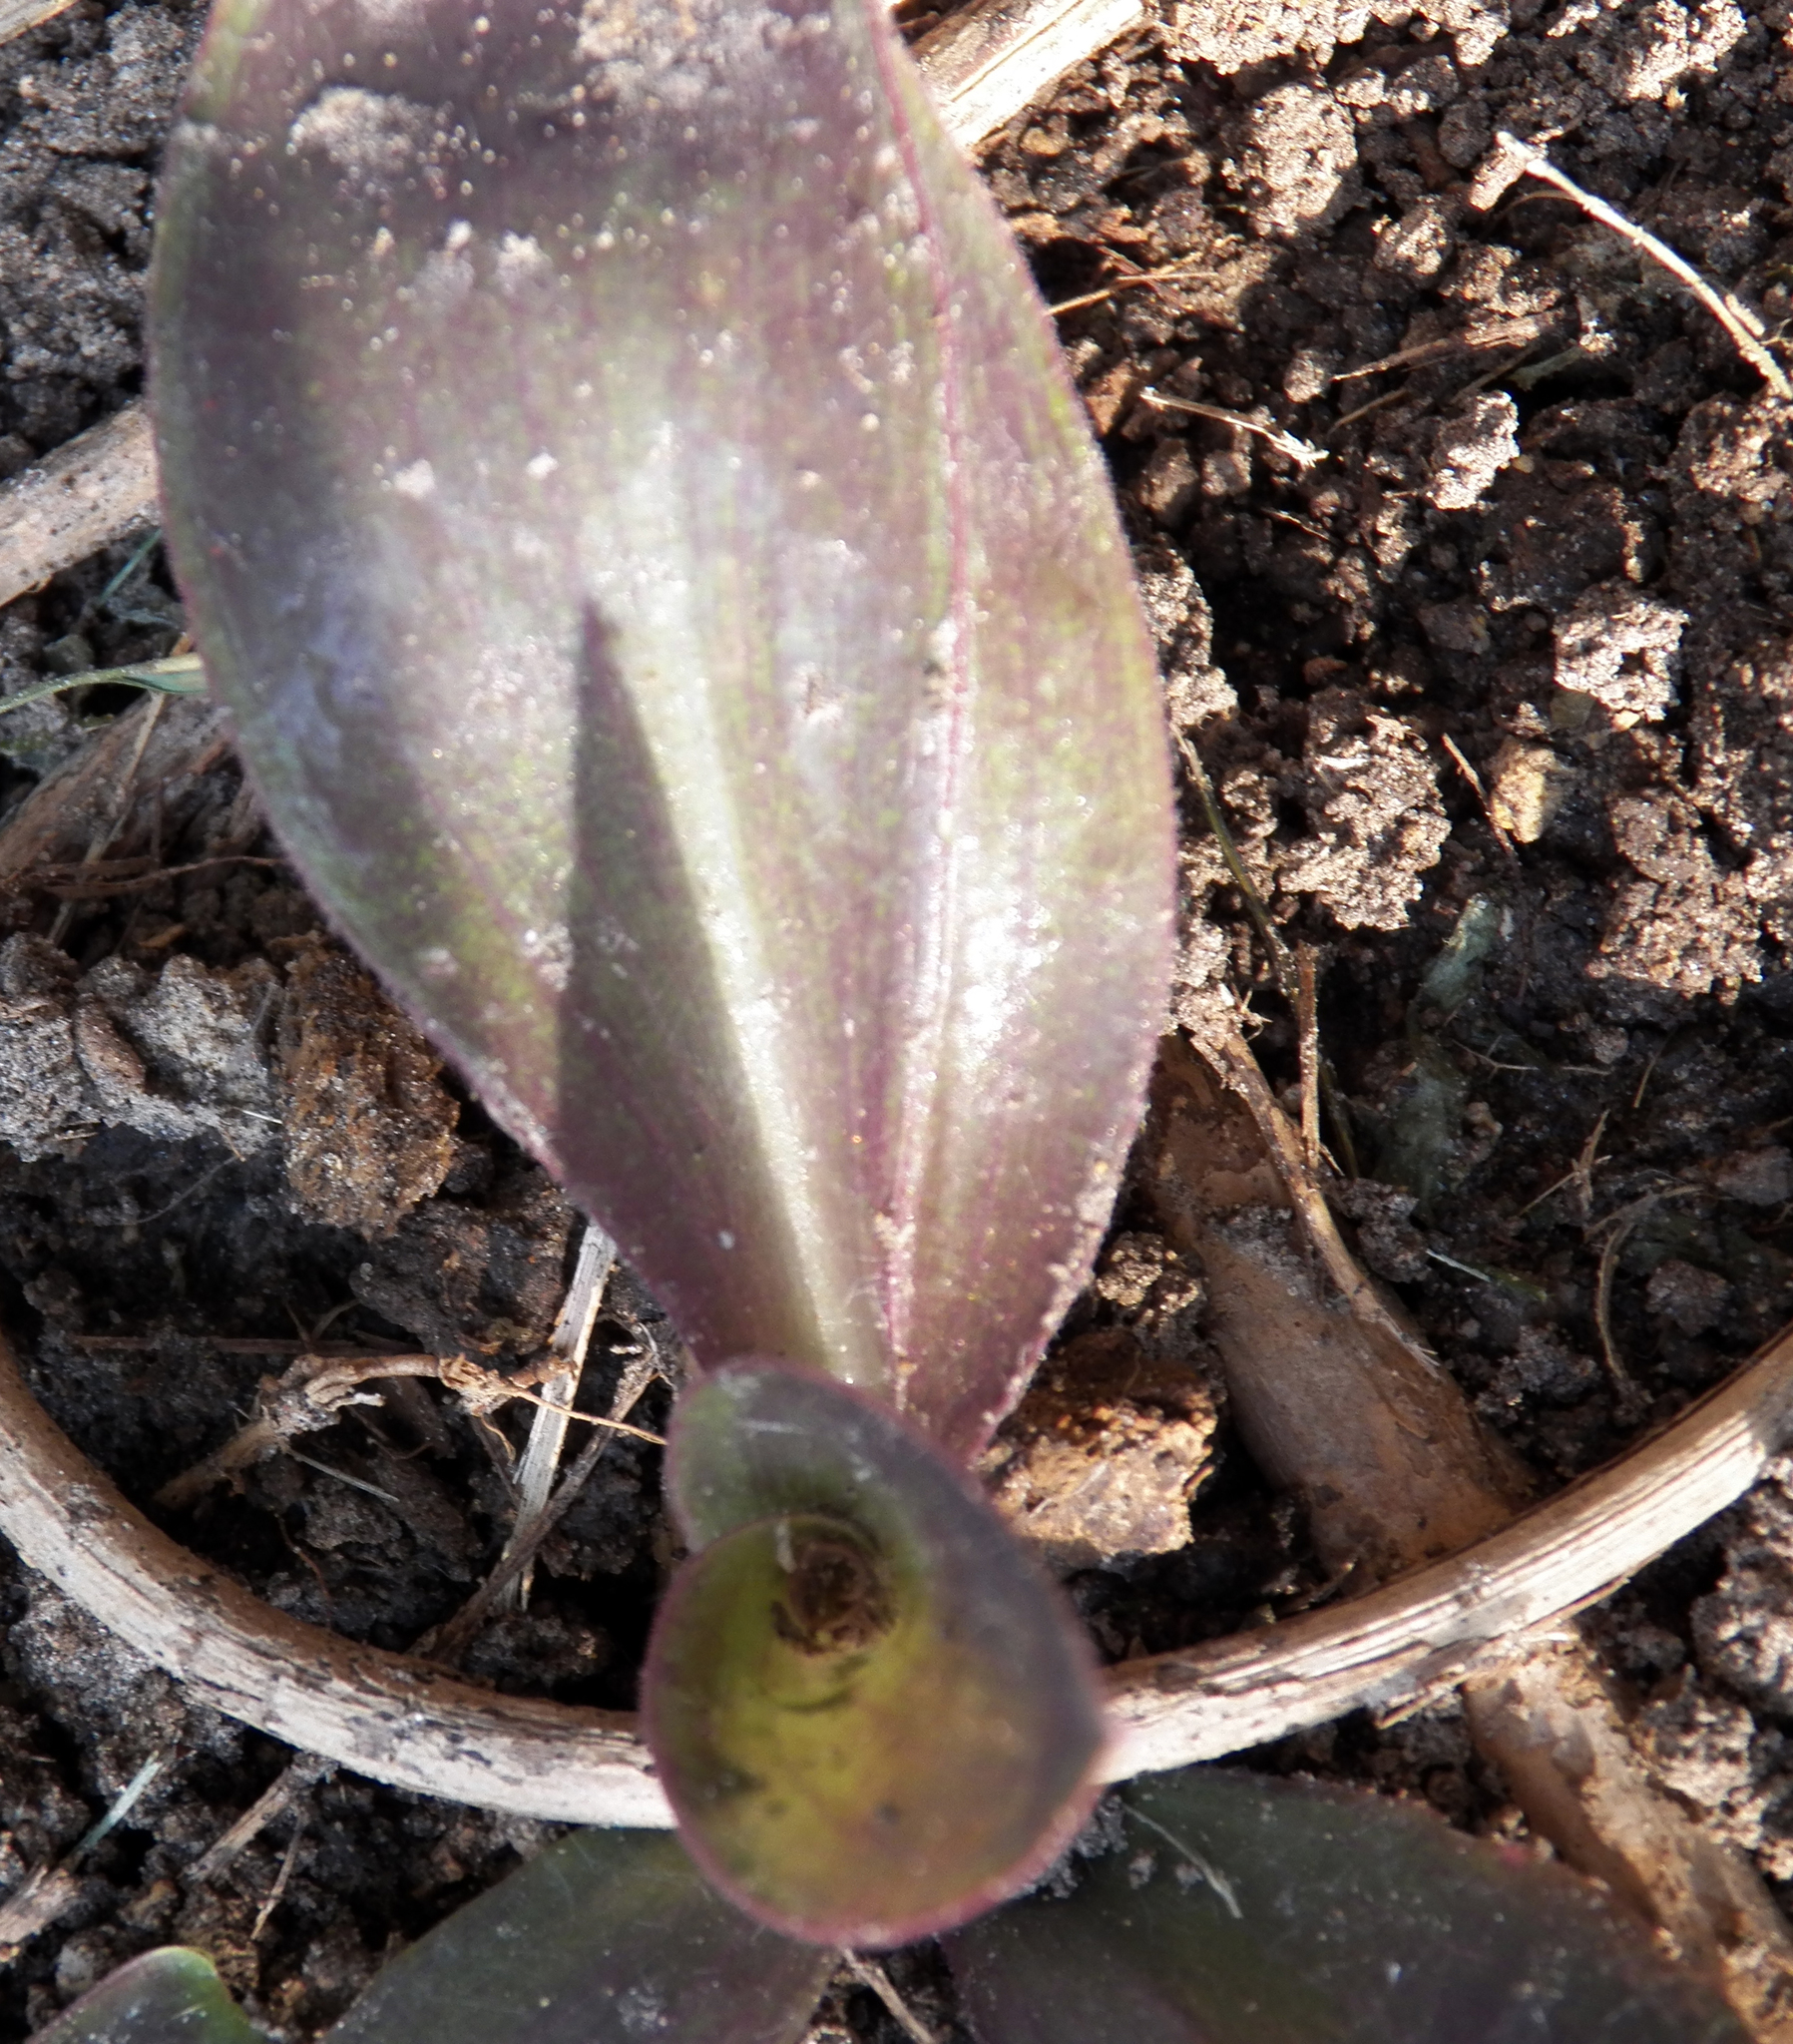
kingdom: Plantae
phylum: Tracheophyta
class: Liliopsida
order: Commelinales
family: Commelinaceae
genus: Tradescantia
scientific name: Tradescantia pallida
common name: Purpleheart
